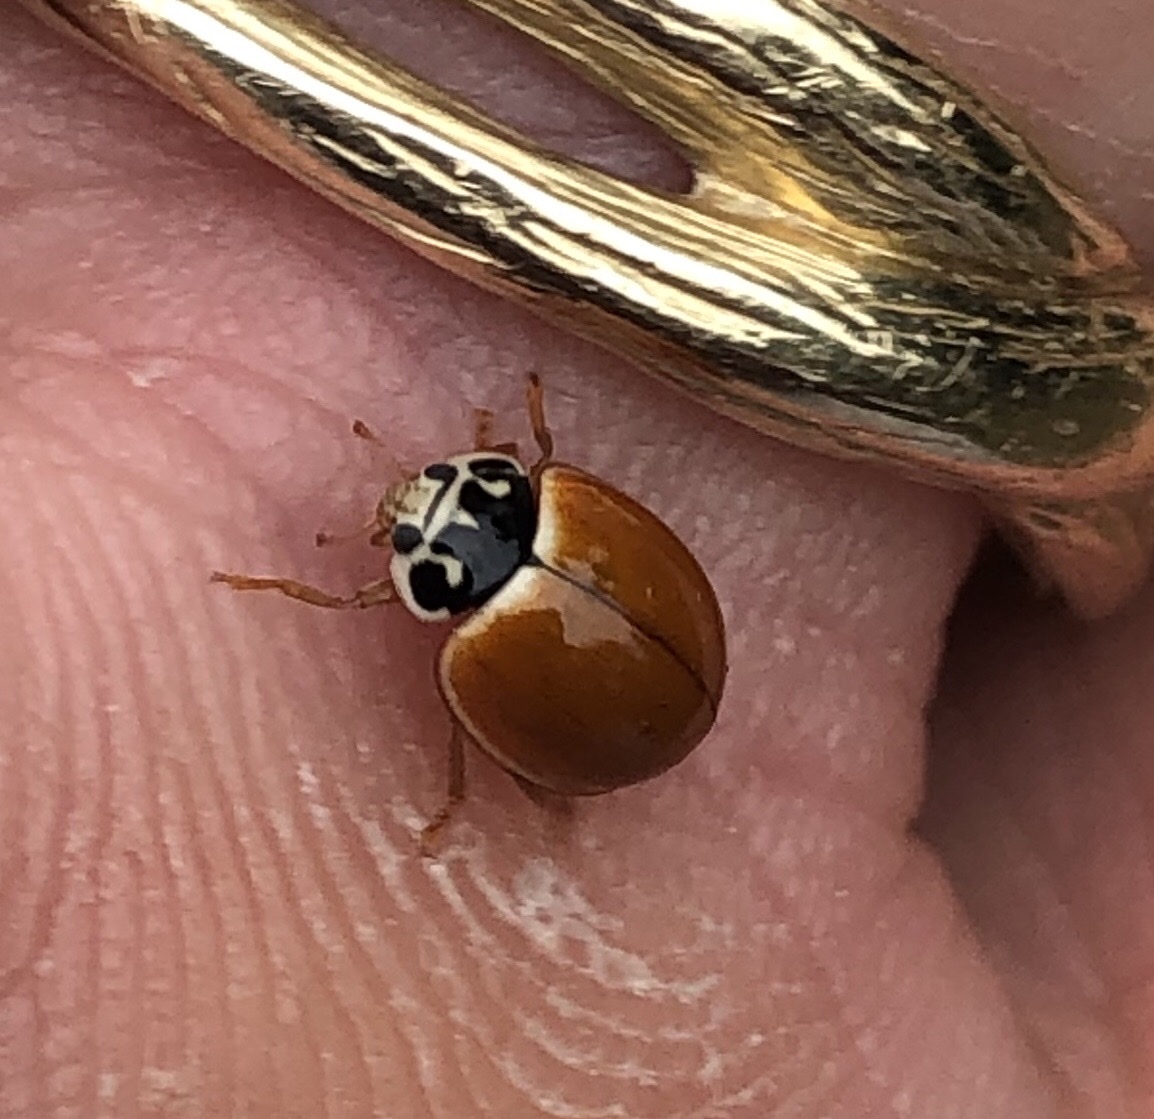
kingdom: Animalia
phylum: Arthropoda
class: Insecta
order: Coleoptera
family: Coccinellidae
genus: Cycloneda
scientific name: Cycloneda munda
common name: Polished lady beetle
